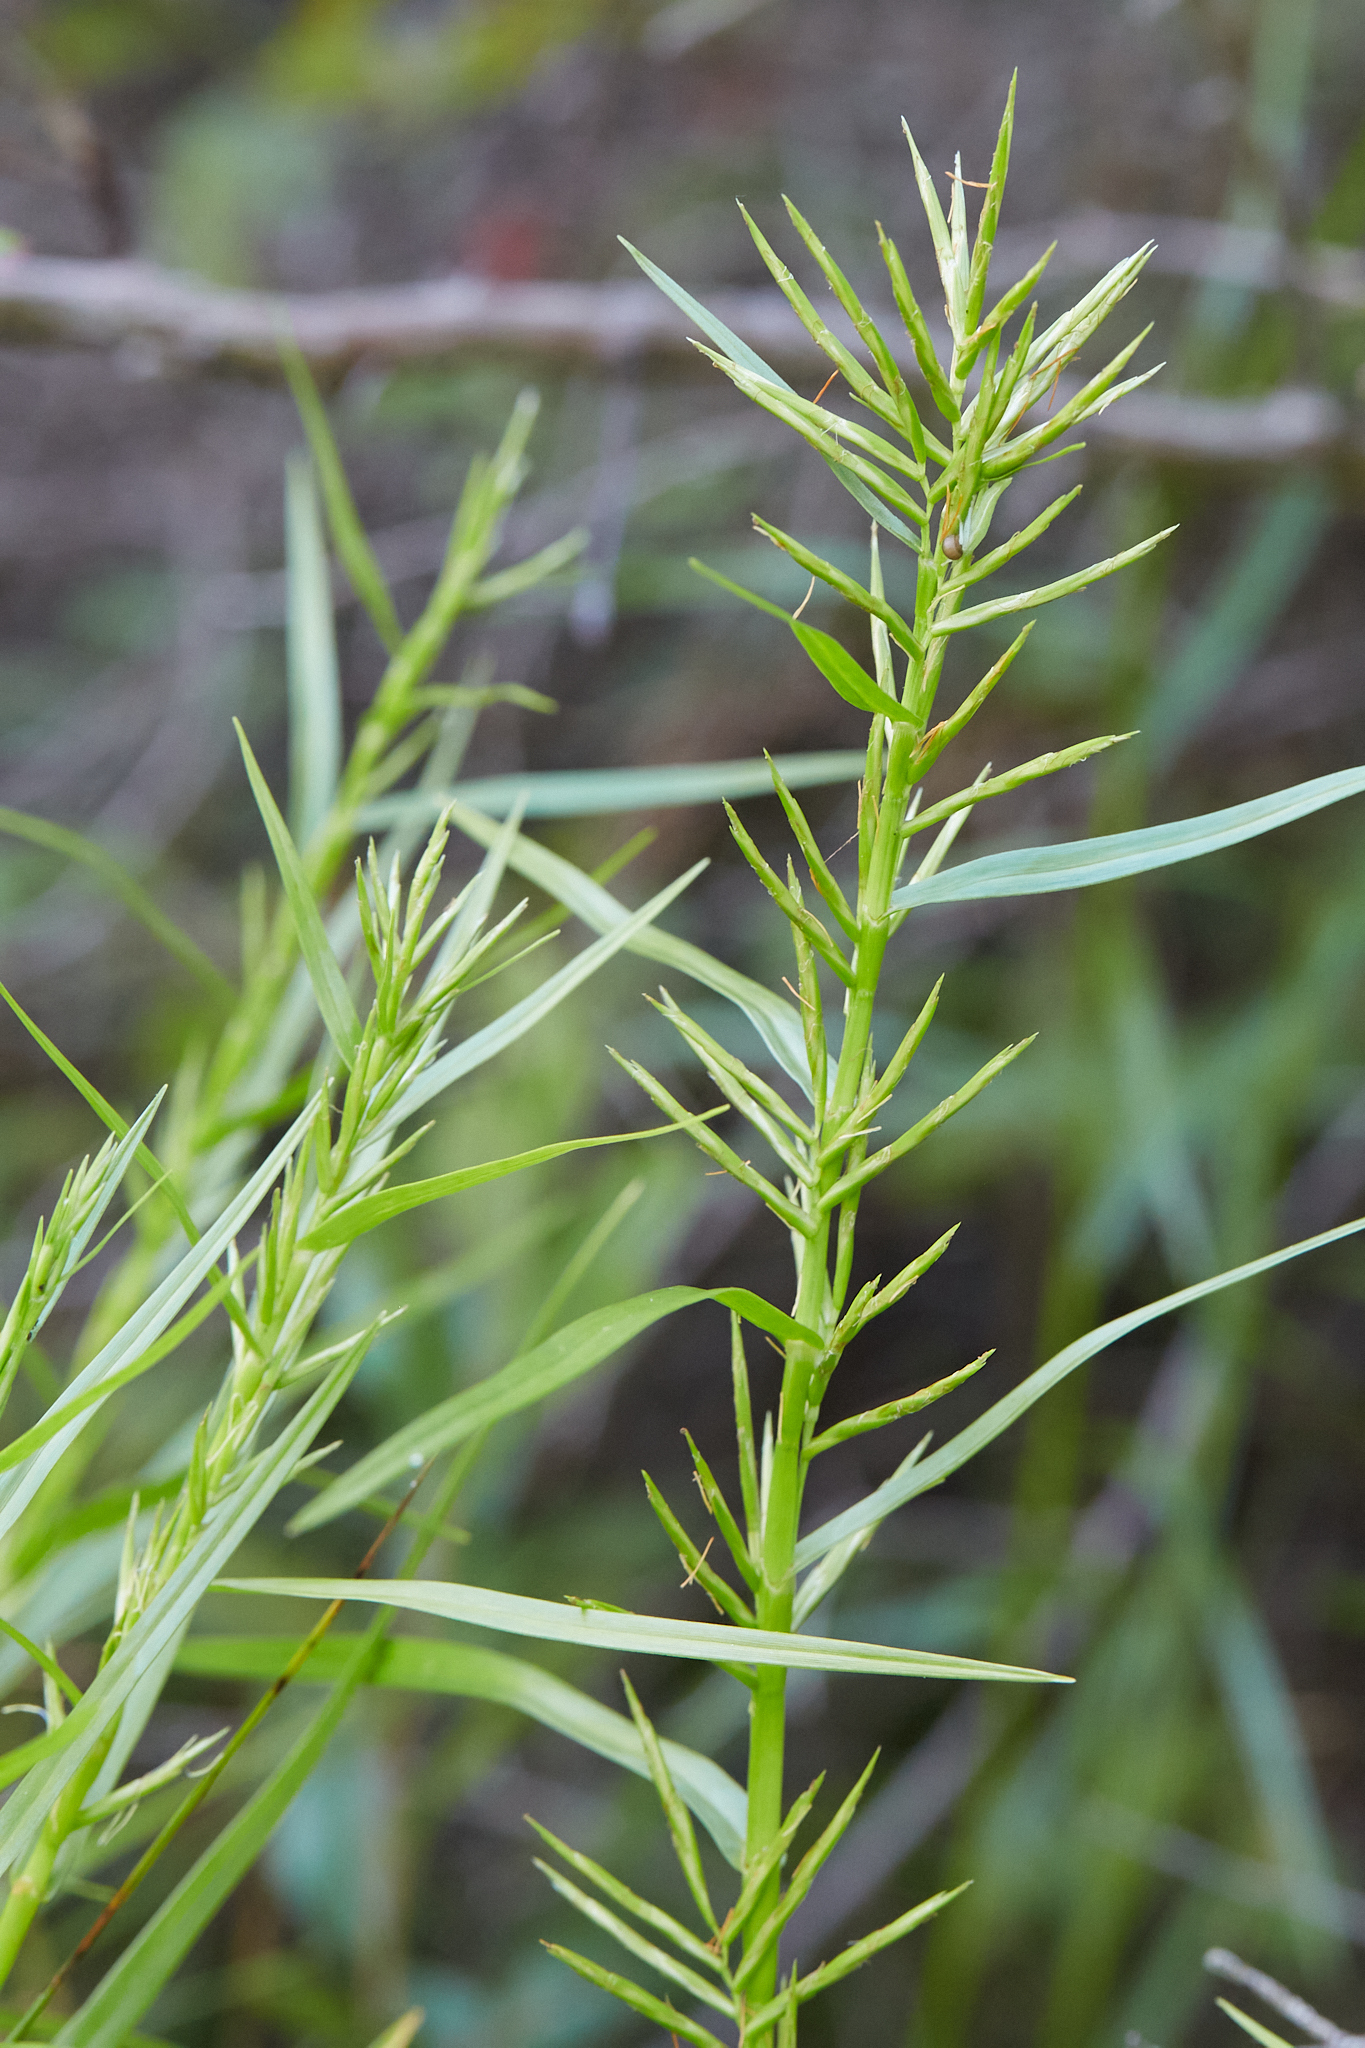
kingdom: Plantae
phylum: Tracheophyta
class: Liliopsida
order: Poales
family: Cyperaceae
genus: Dulichium
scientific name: Dulichium arundinaceum
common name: Three-way sedge
